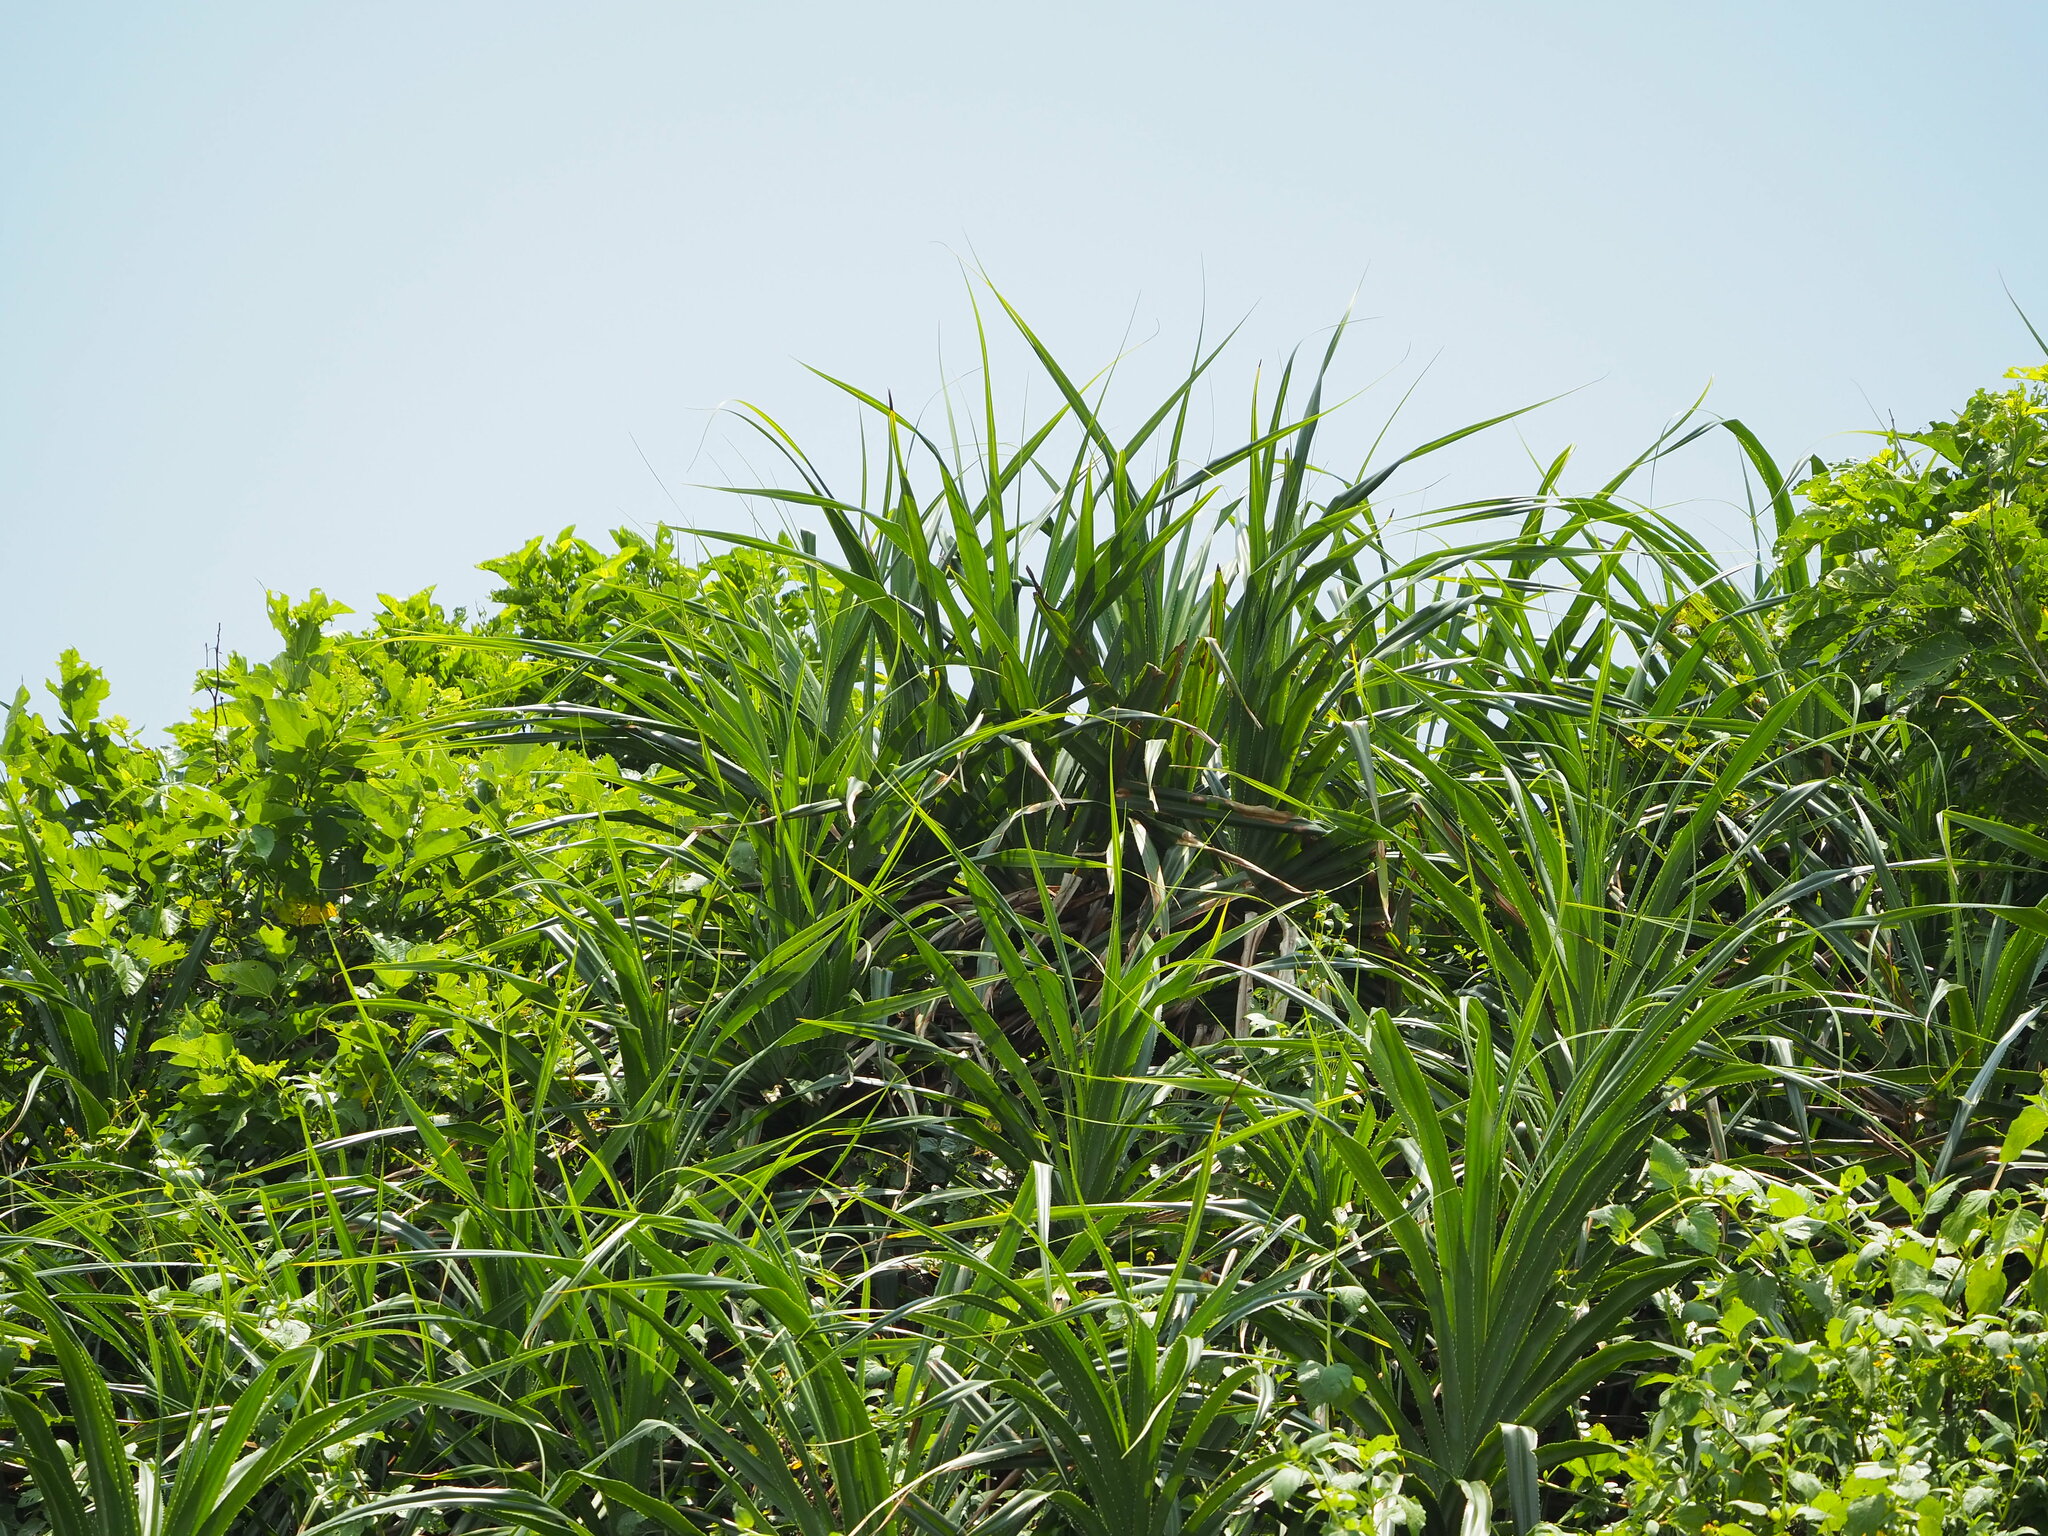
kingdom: Plantae
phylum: Tracheophyta
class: Liliopsida
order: Pandanales
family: Pandanaceae
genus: Pandanus
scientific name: Pandanus odorifer
